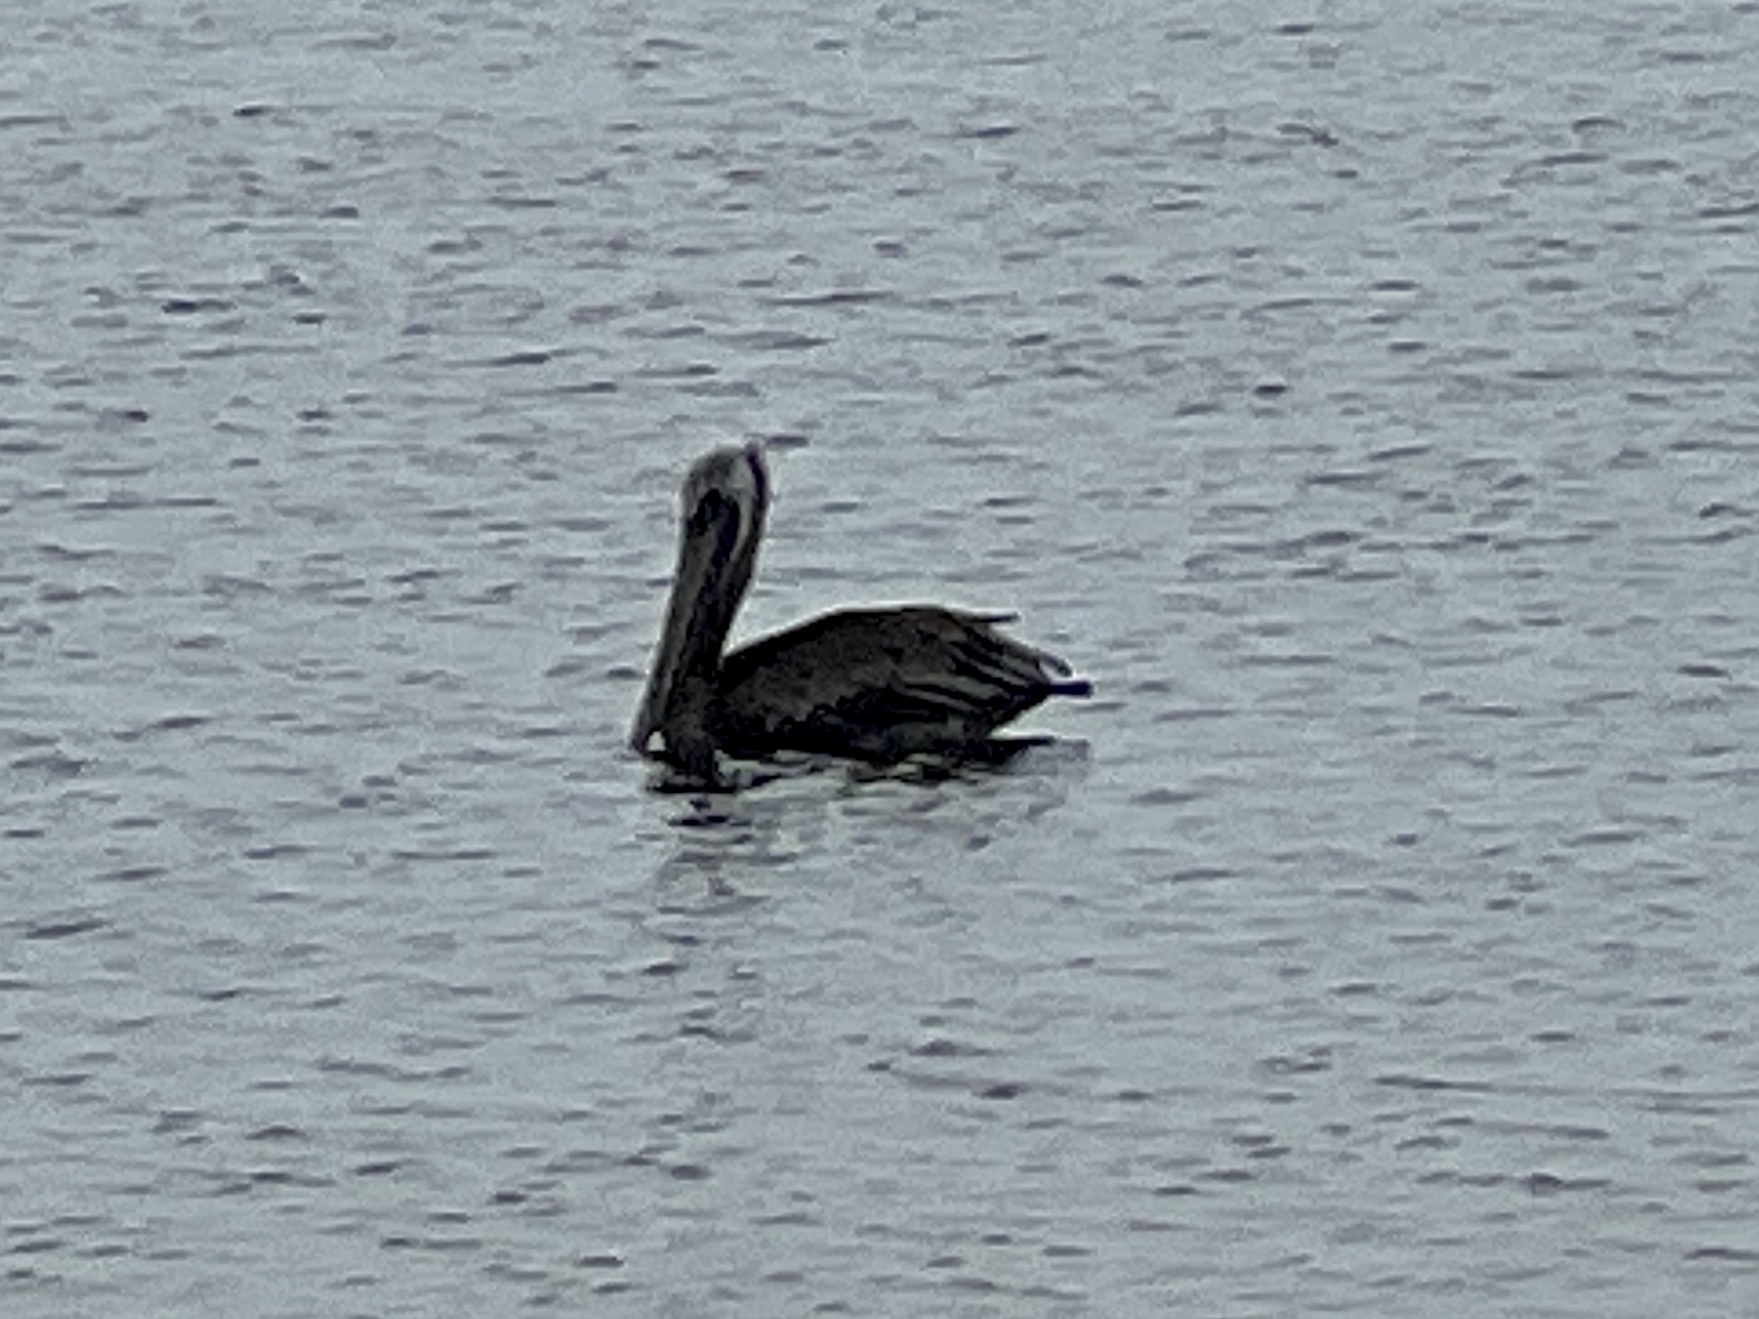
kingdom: Animalia
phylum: Chordata
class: Aves
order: Pelecaniformes
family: Pelecanidae
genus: Pelecanus
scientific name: Pelecanus occidentalis
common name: Brown pelican
